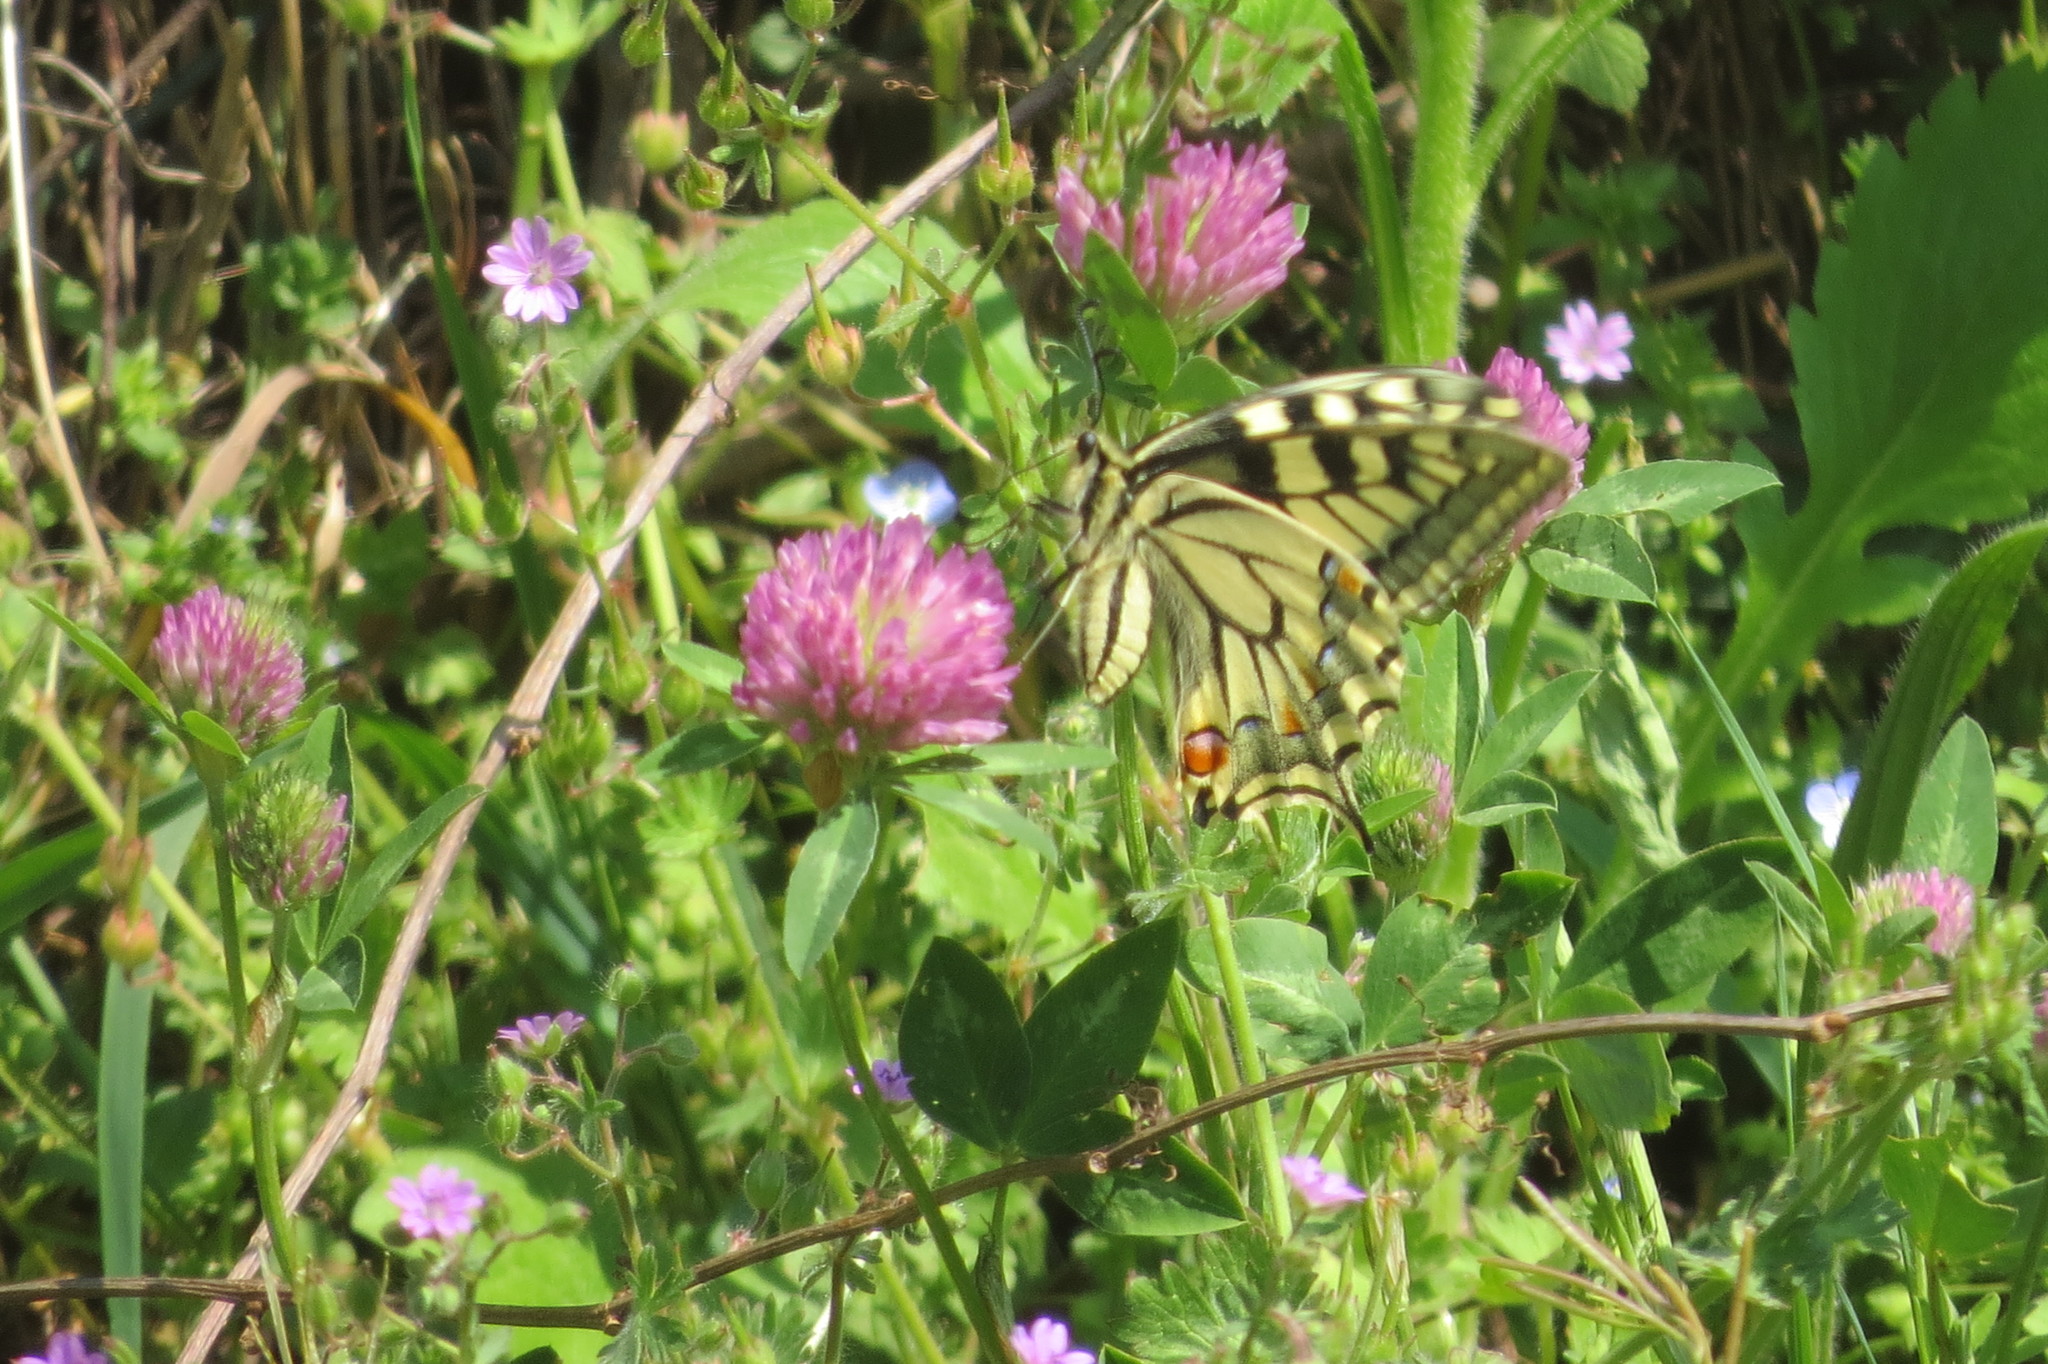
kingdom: Animalia
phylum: Arthropoda
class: Insecta
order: Lepidoptera
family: Papilionidae
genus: Papilio
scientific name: Papilio machaon
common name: Swallowtail
